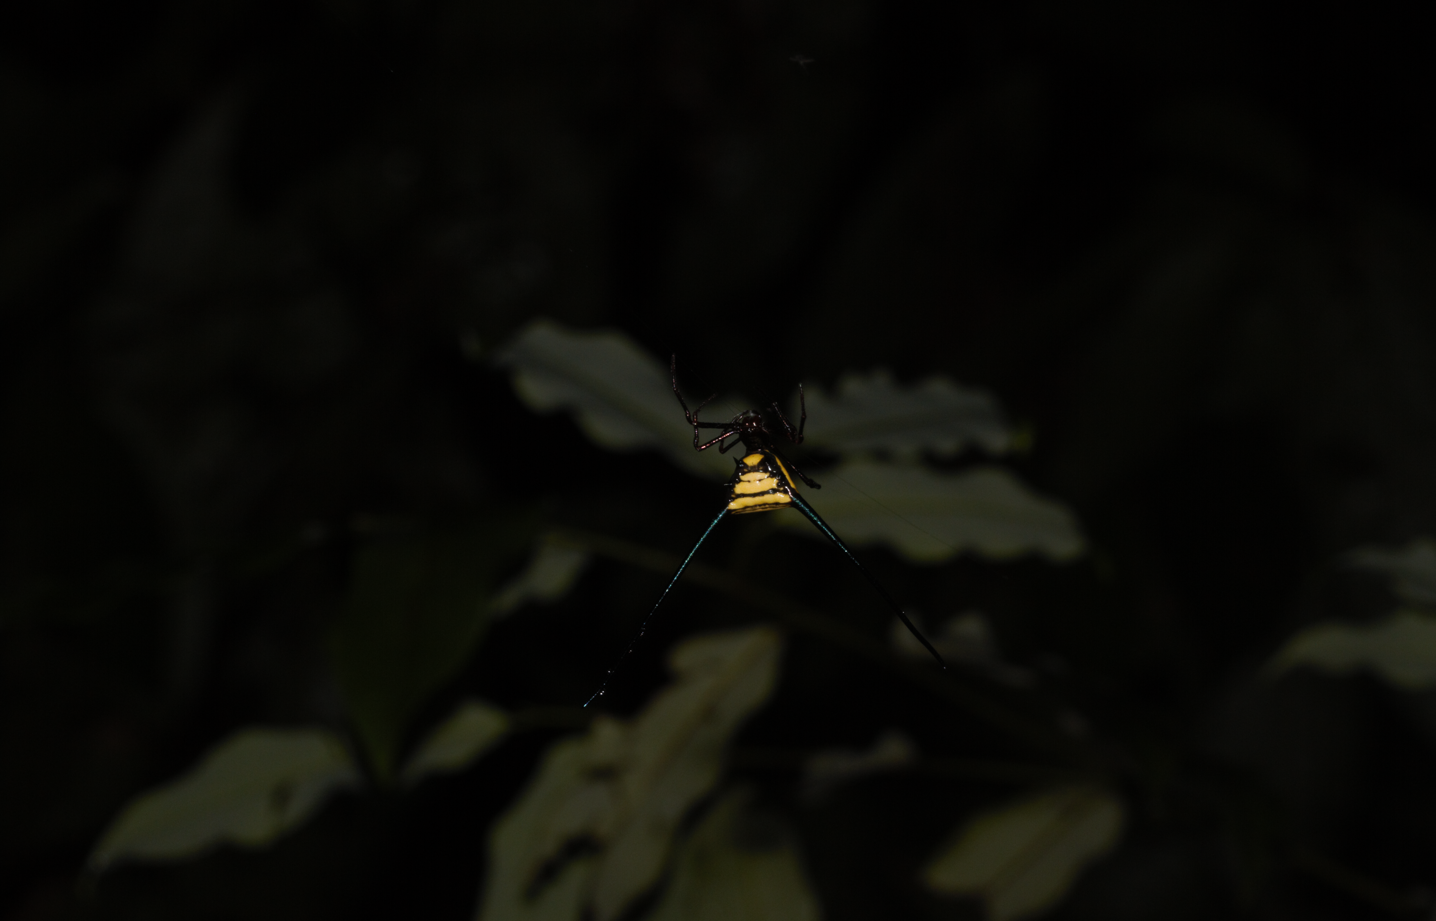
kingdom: Animalia
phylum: Arthropoda
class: Arachnida
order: Araneae
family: Araneidae
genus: Micrathena
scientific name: Micrathena cyanospina
